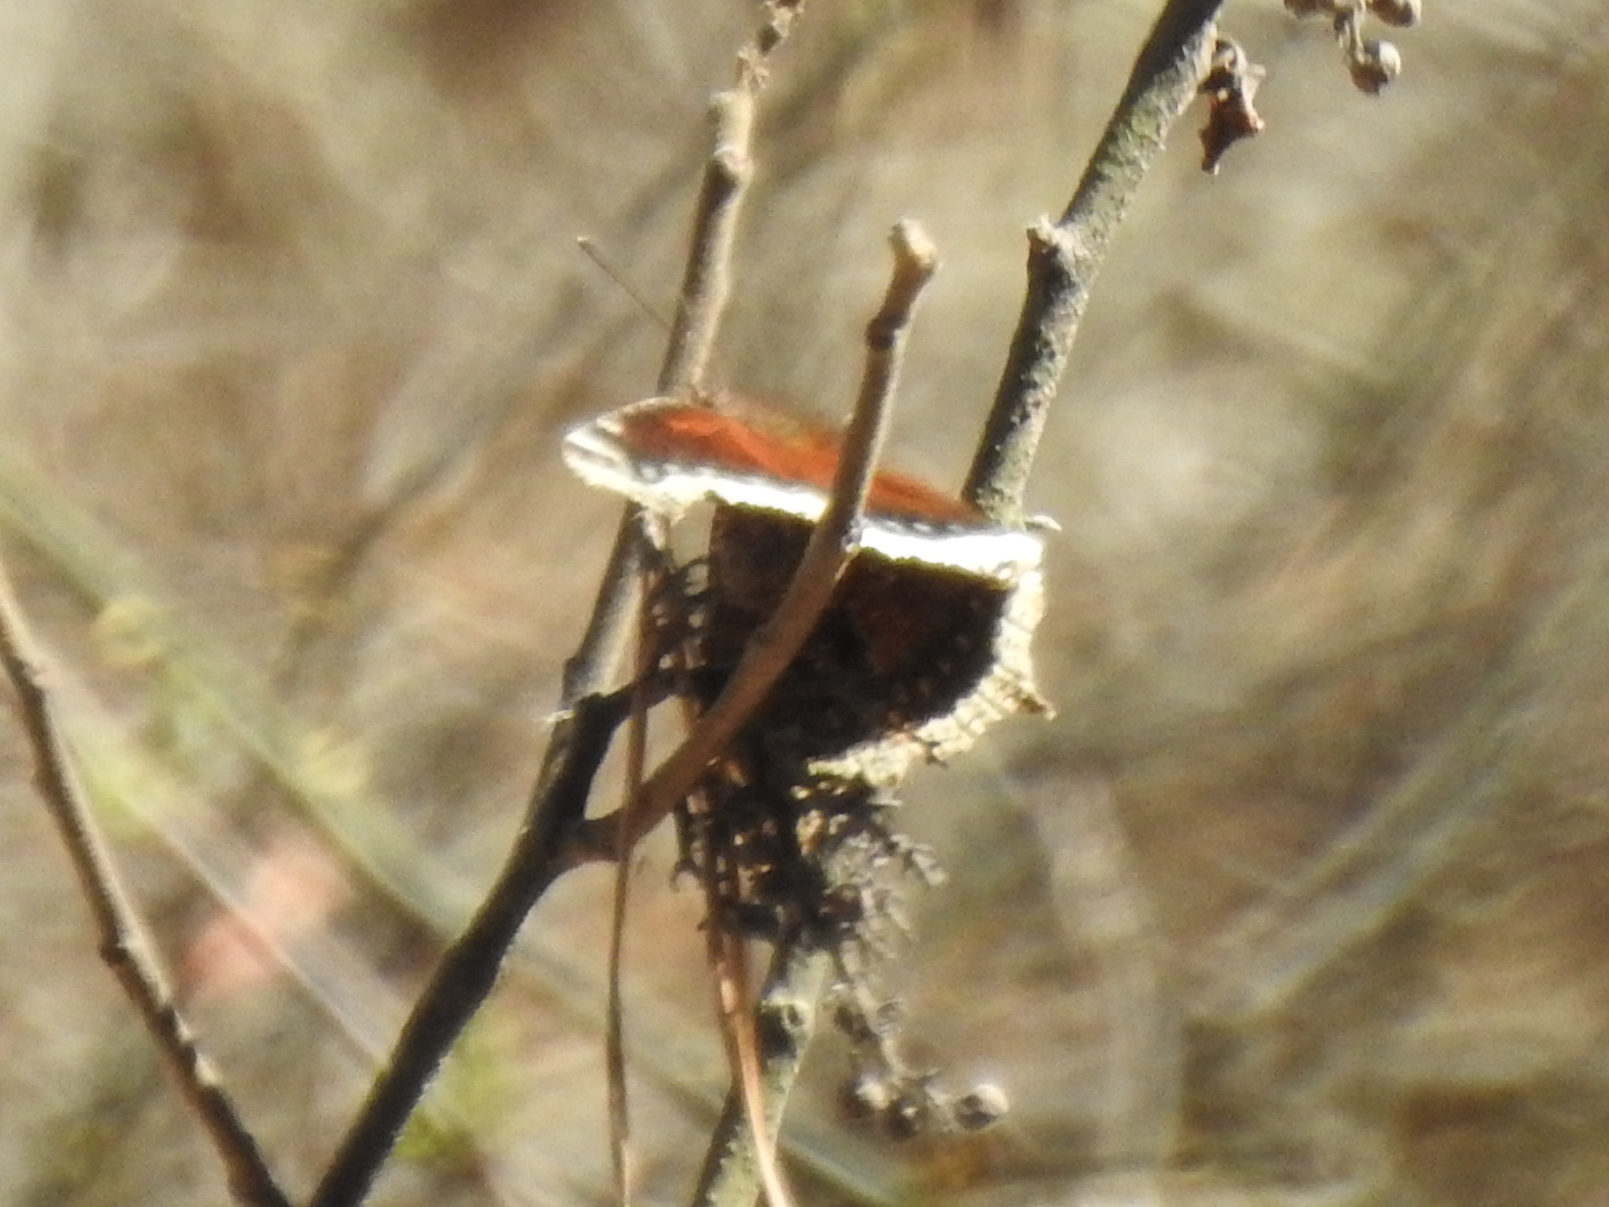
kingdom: Animalia
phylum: Arthropoda
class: Insecta
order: Lepidoptera
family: Nymphalidae
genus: Nymphalis
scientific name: Nymphalis antiopa
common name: Camberwell beauty
